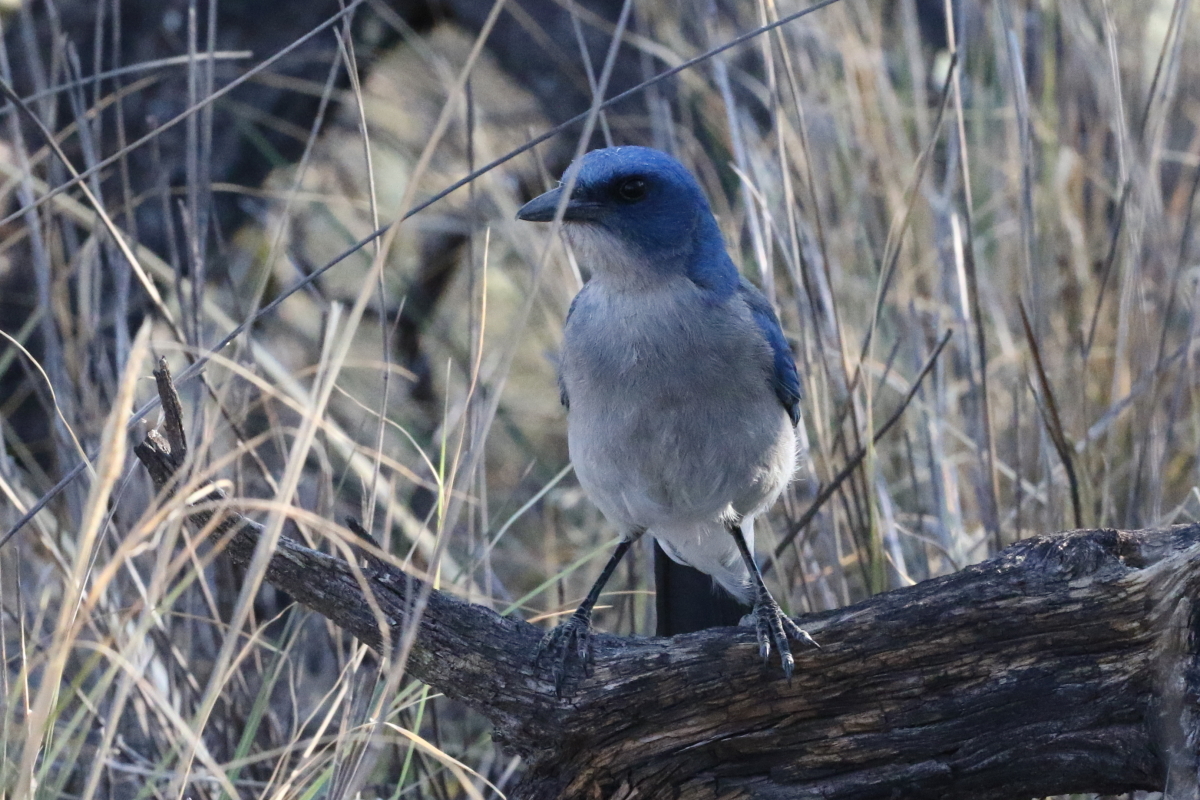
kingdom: Animalia
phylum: Chordata
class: Aves
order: Passeriformes
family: Corvidae
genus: Aphelocoma
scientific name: Aphelocoma wollweberi
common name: Mexican jay
